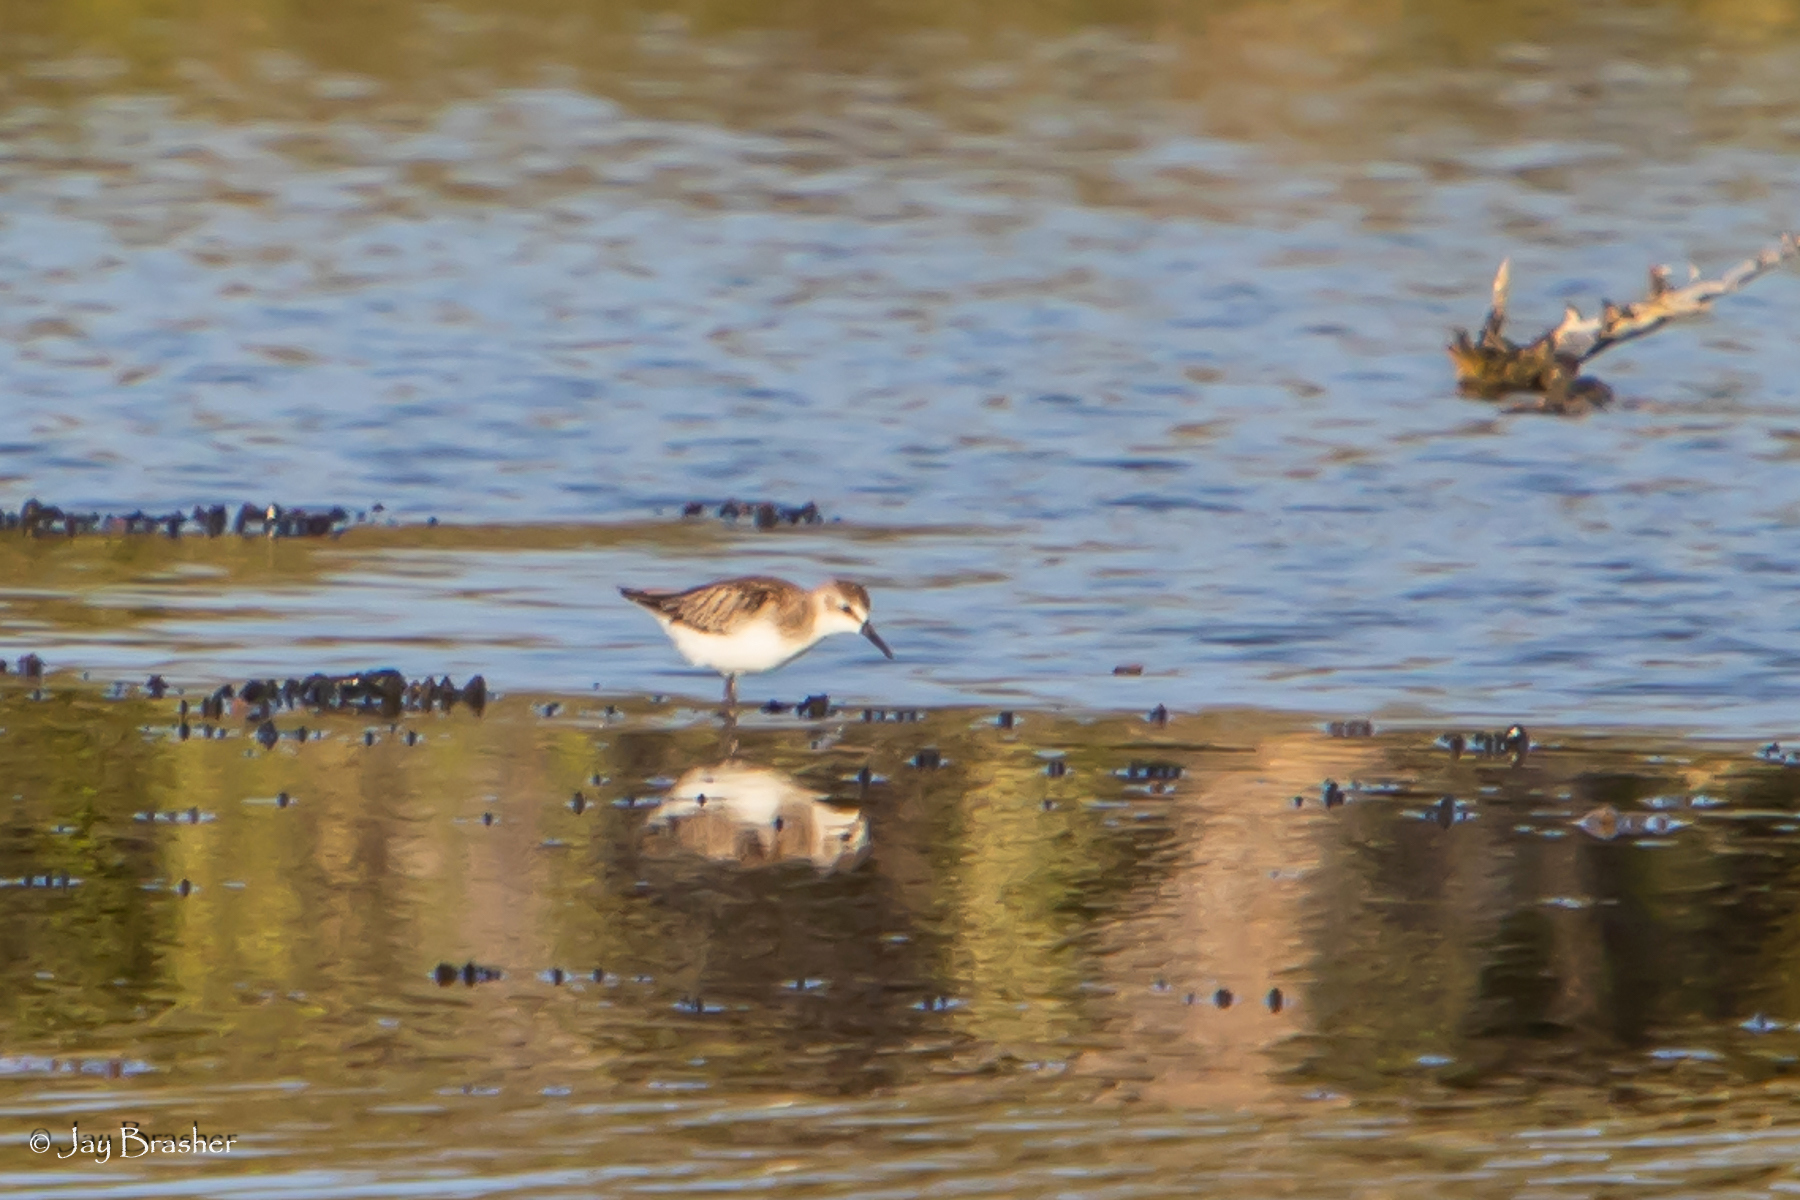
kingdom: Animalia
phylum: Chordata
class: Aves
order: Charadriiformes
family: Scolopacidae
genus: Calidris
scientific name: Calidris mauri
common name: Western sandpiper
